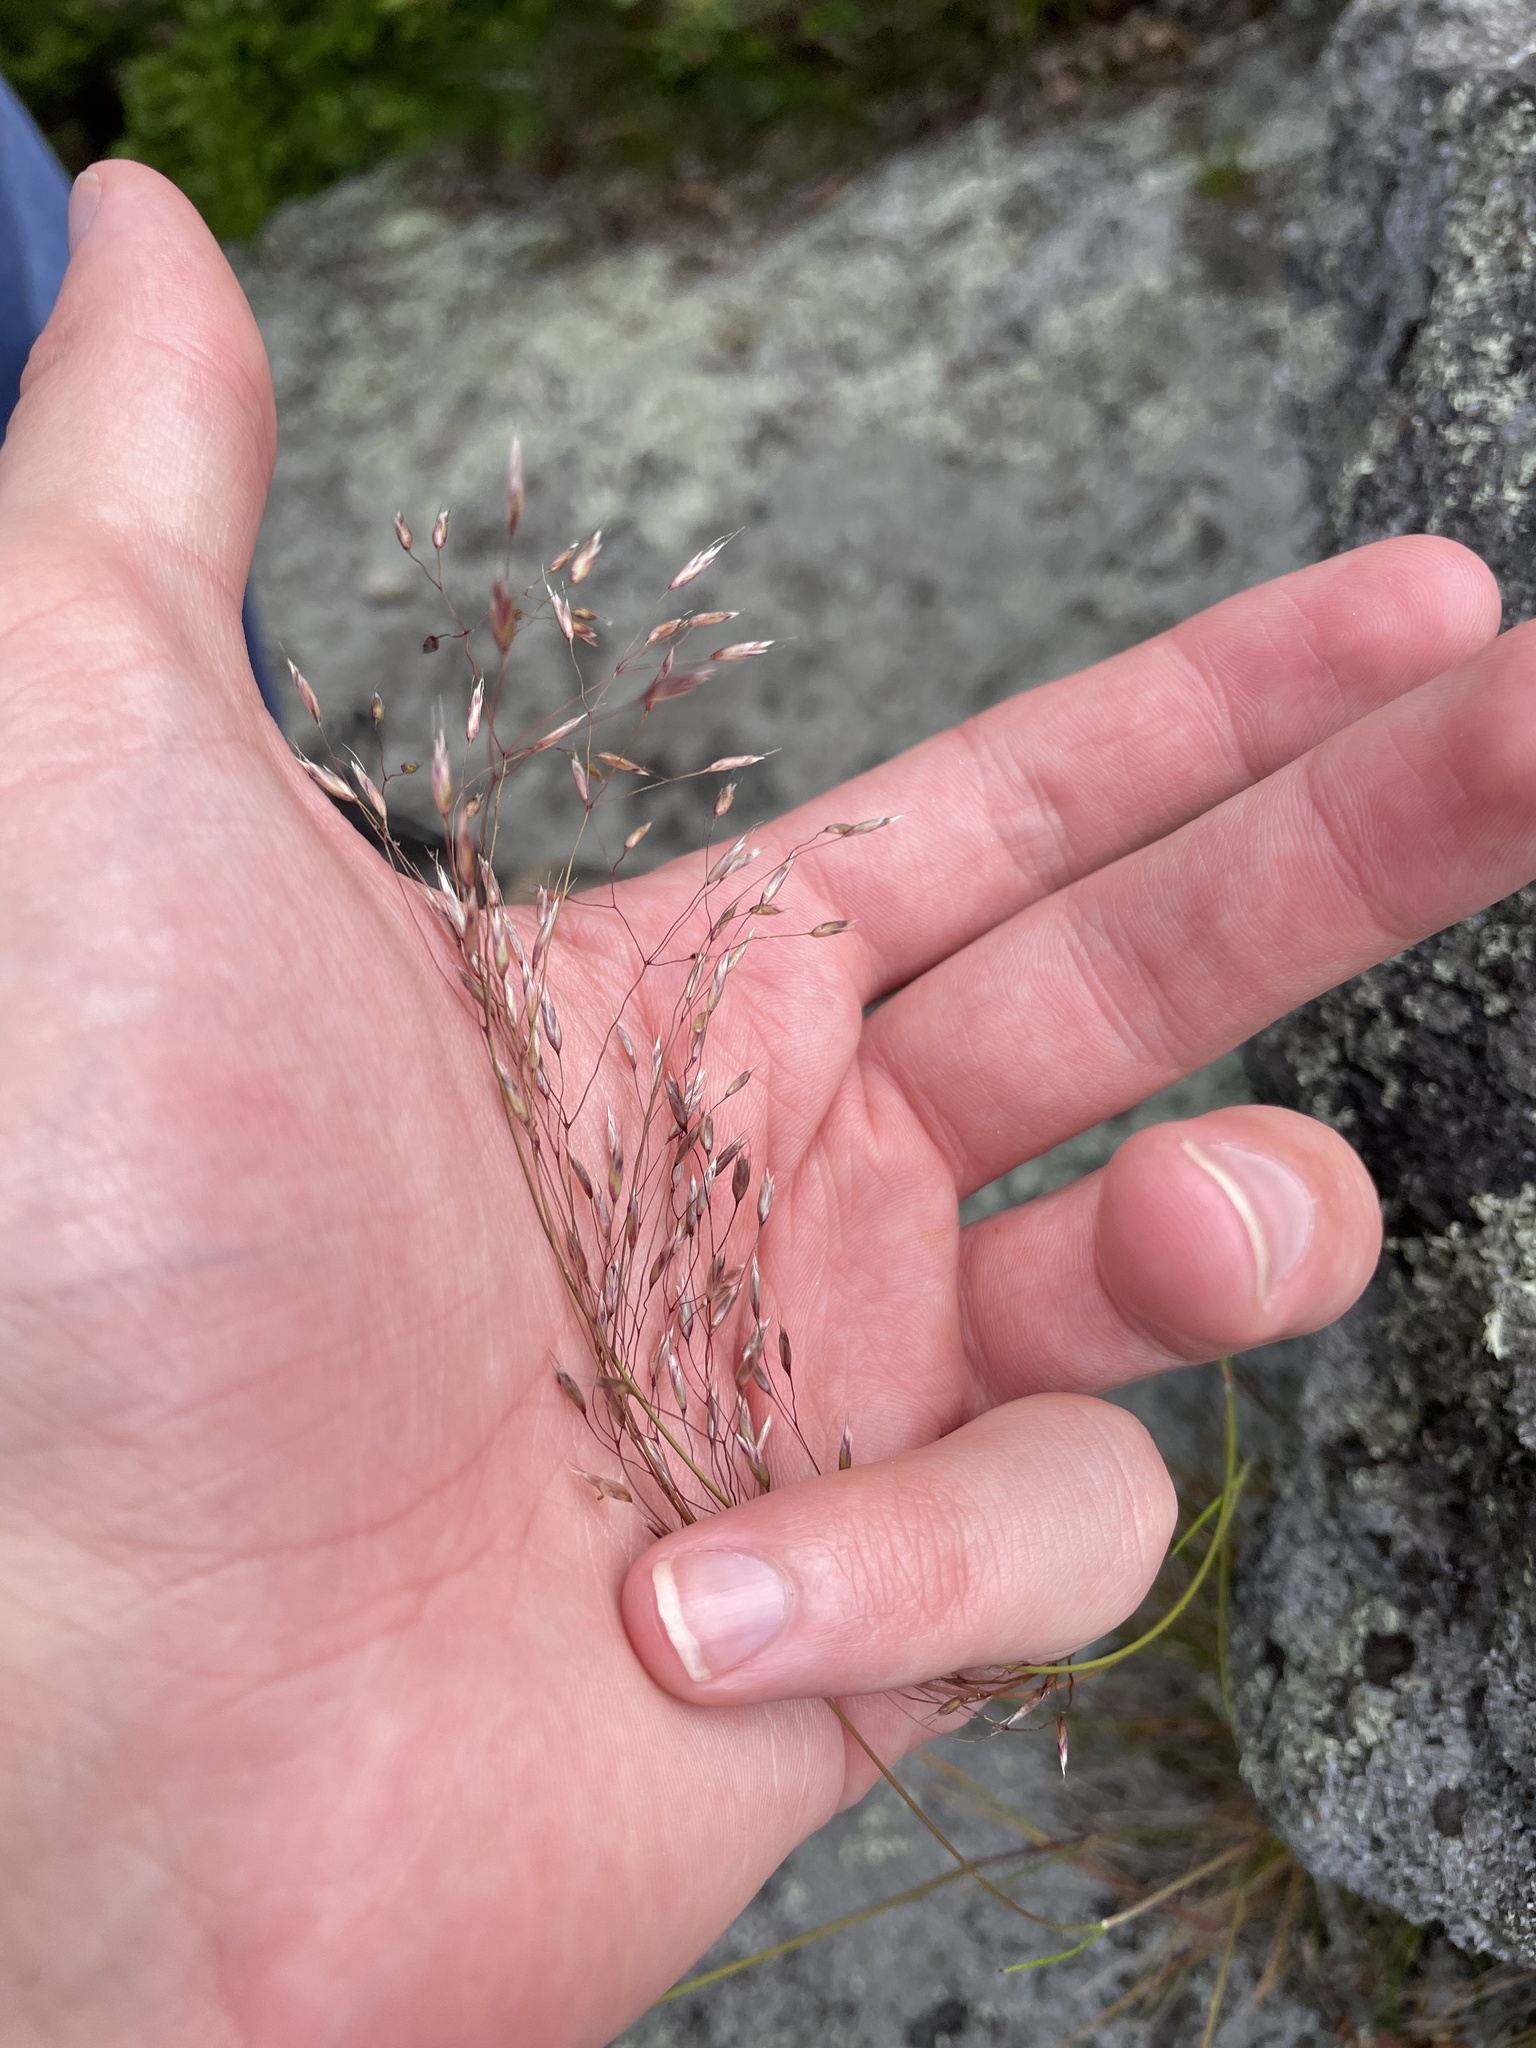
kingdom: Plantae
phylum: Tracheophyta
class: Liliopsida
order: Poales
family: Poaceae
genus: Avenella
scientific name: Avenella flexuosa
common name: Wavy hairgrass
